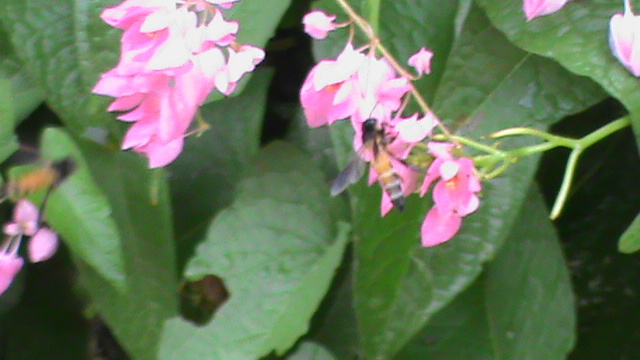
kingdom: Animalia
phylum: Arthropoda
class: Insecta
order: Hymenoptera
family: Apidae
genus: Apis
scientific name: Apis dorsata
